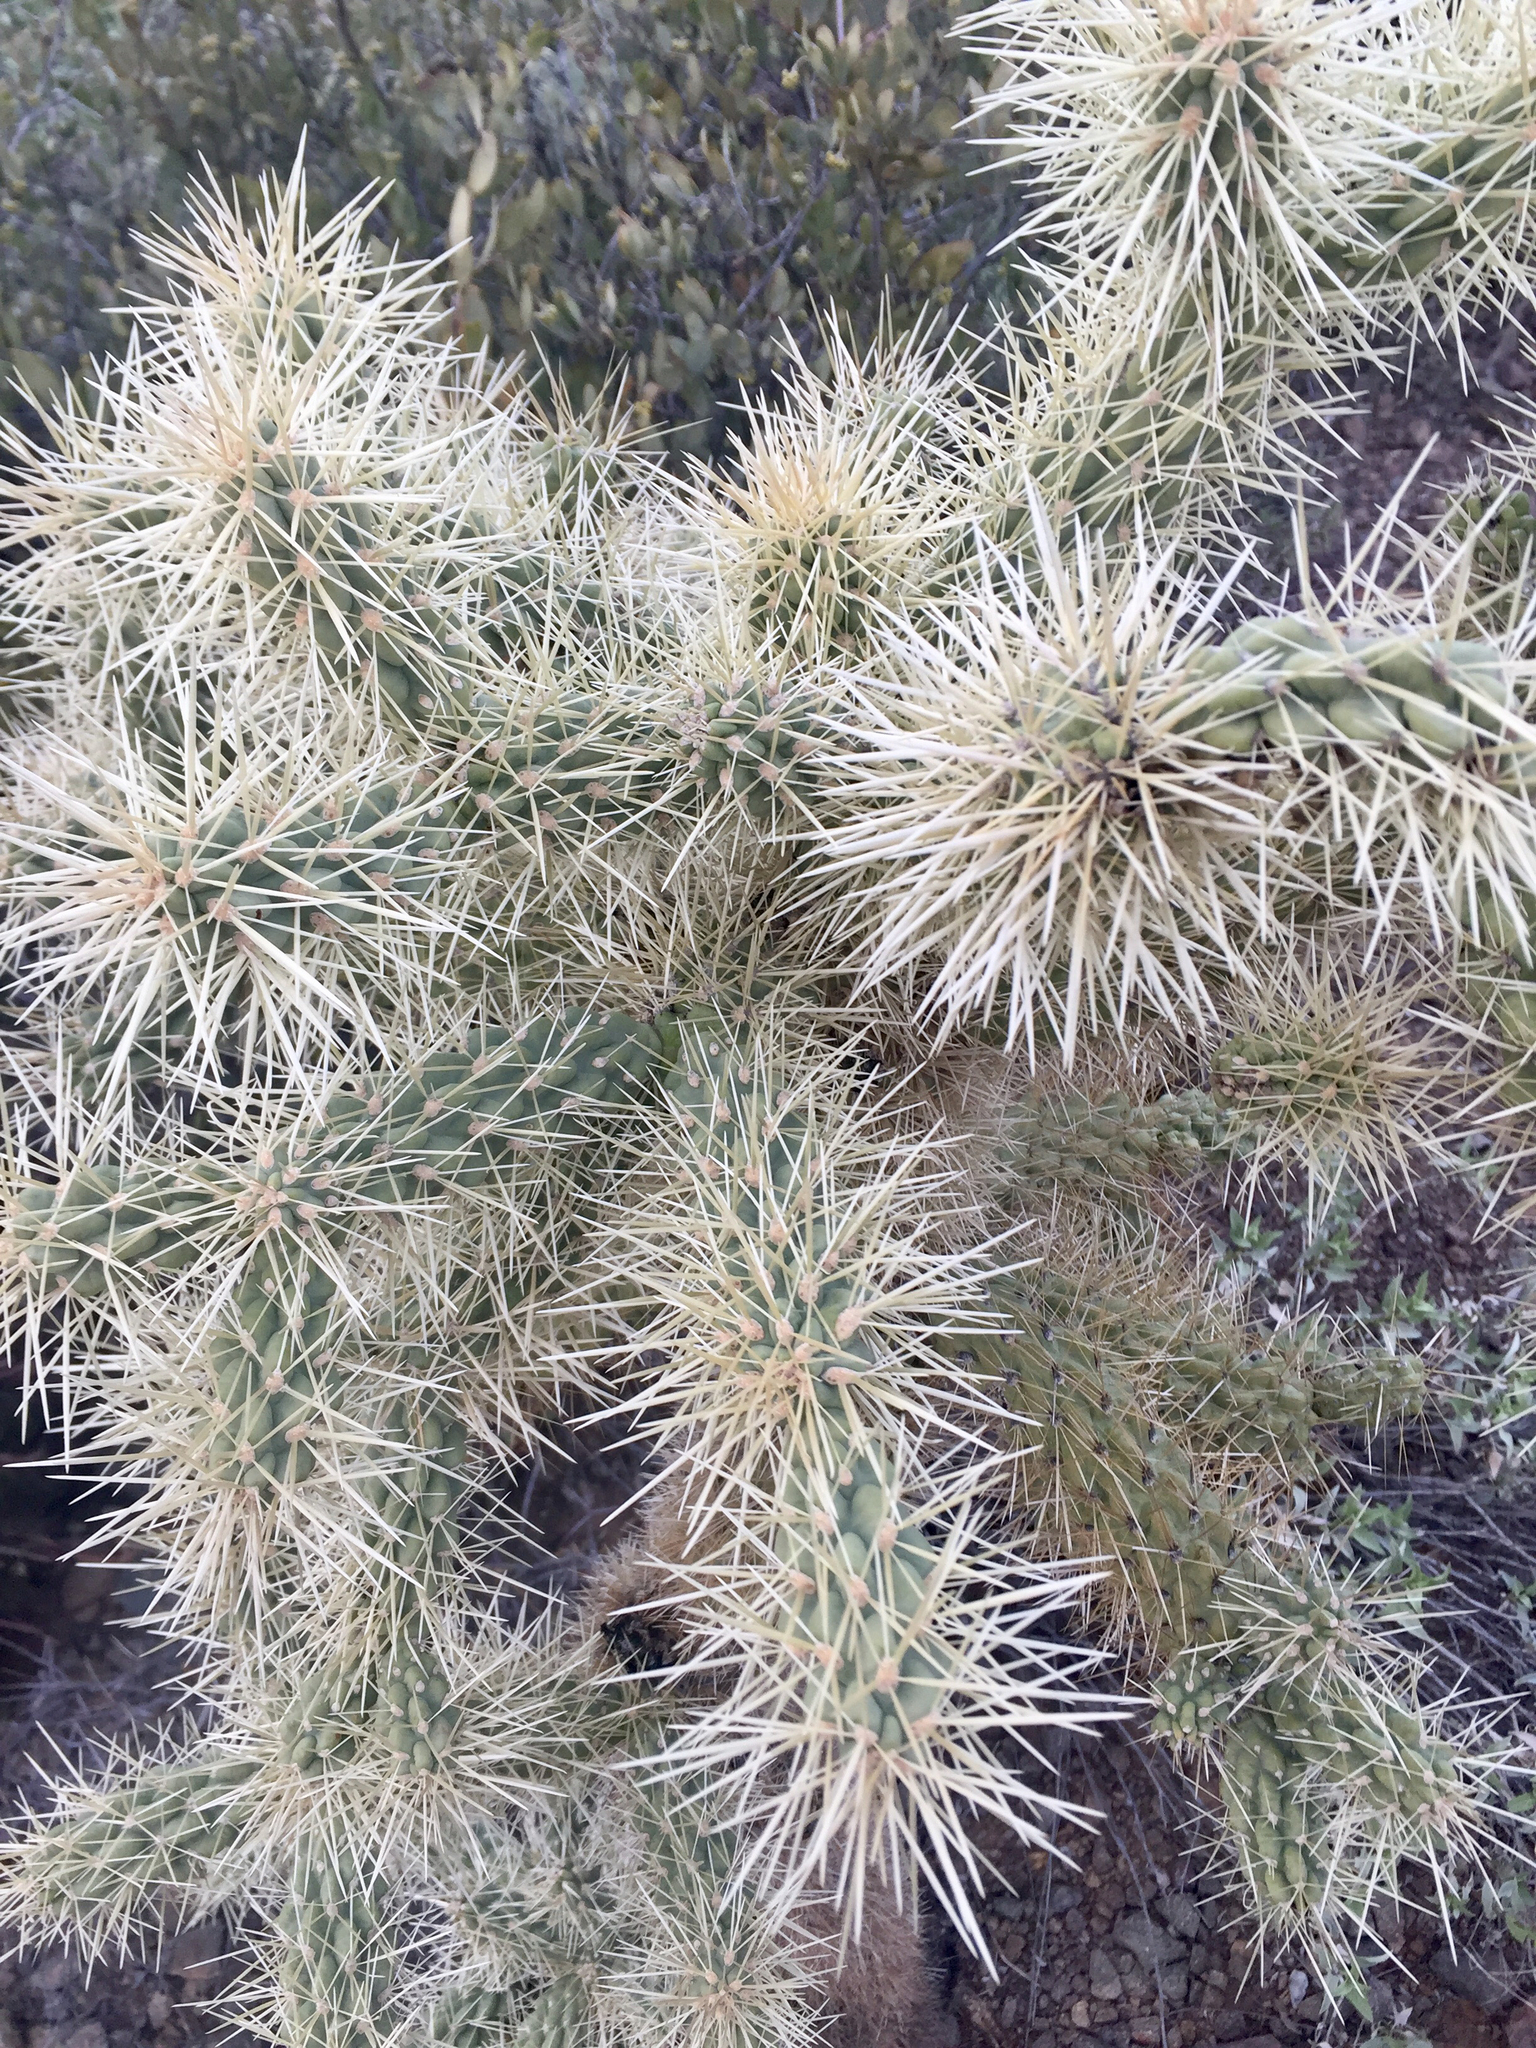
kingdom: Plantae
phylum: Tracheophyta
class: Magnoliopsida
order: Caryophyllales
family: Cactaceae
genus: Cylindropuntia
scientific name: Cylindropuntia fosbergii
